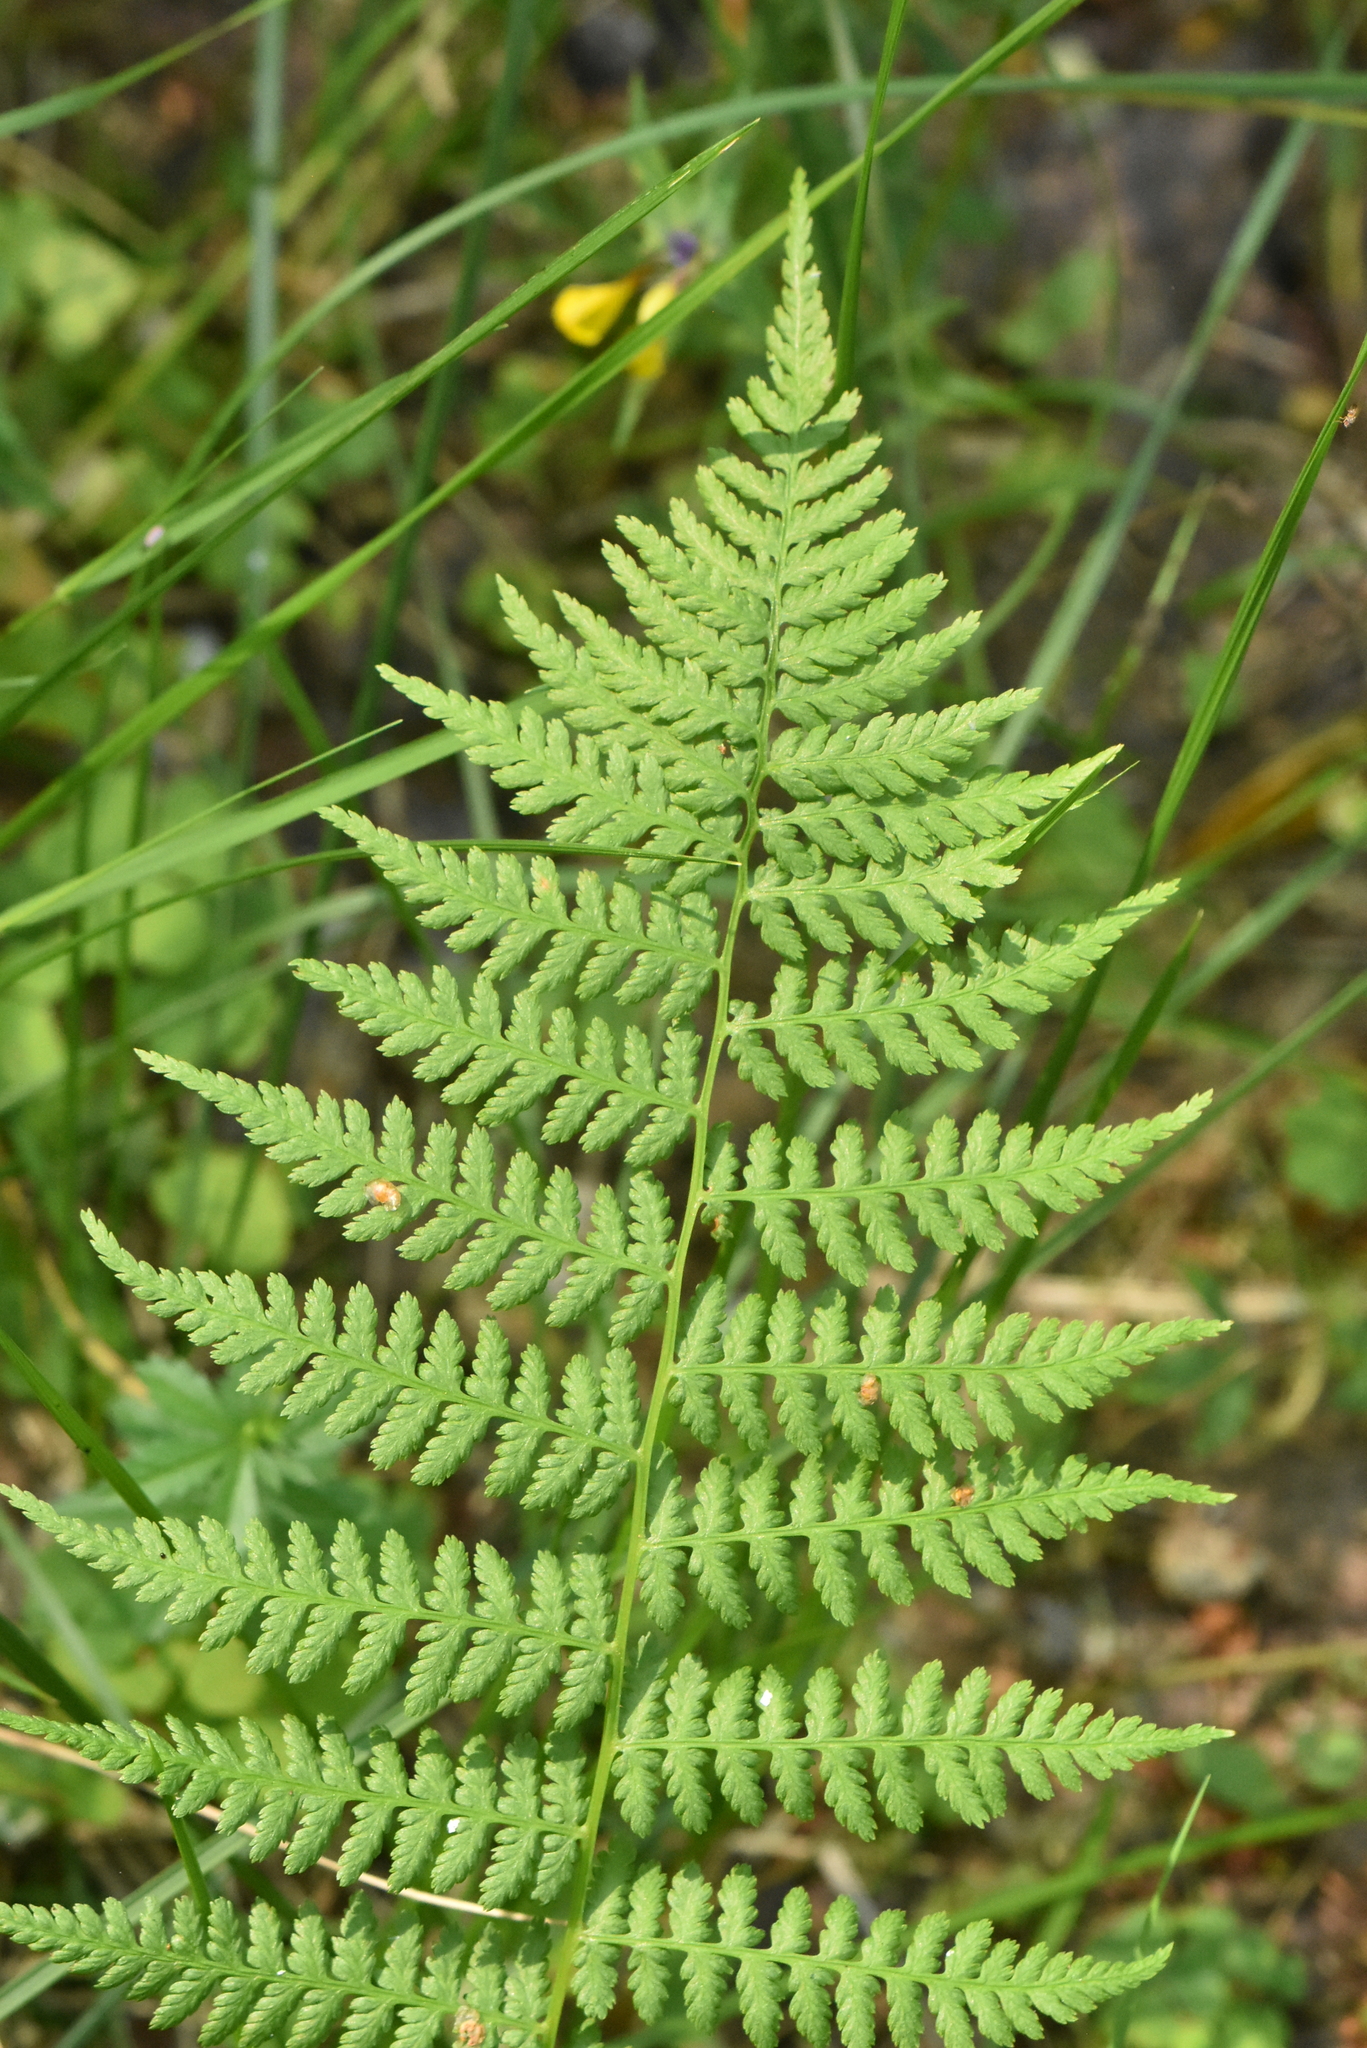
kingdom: Plantae
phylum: Tracheophyta
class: Polypodiopsida
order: Polypodiales
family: Athyriaceae
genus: Athyrium
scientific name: Athyrium filix-femina
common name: Lady fern
